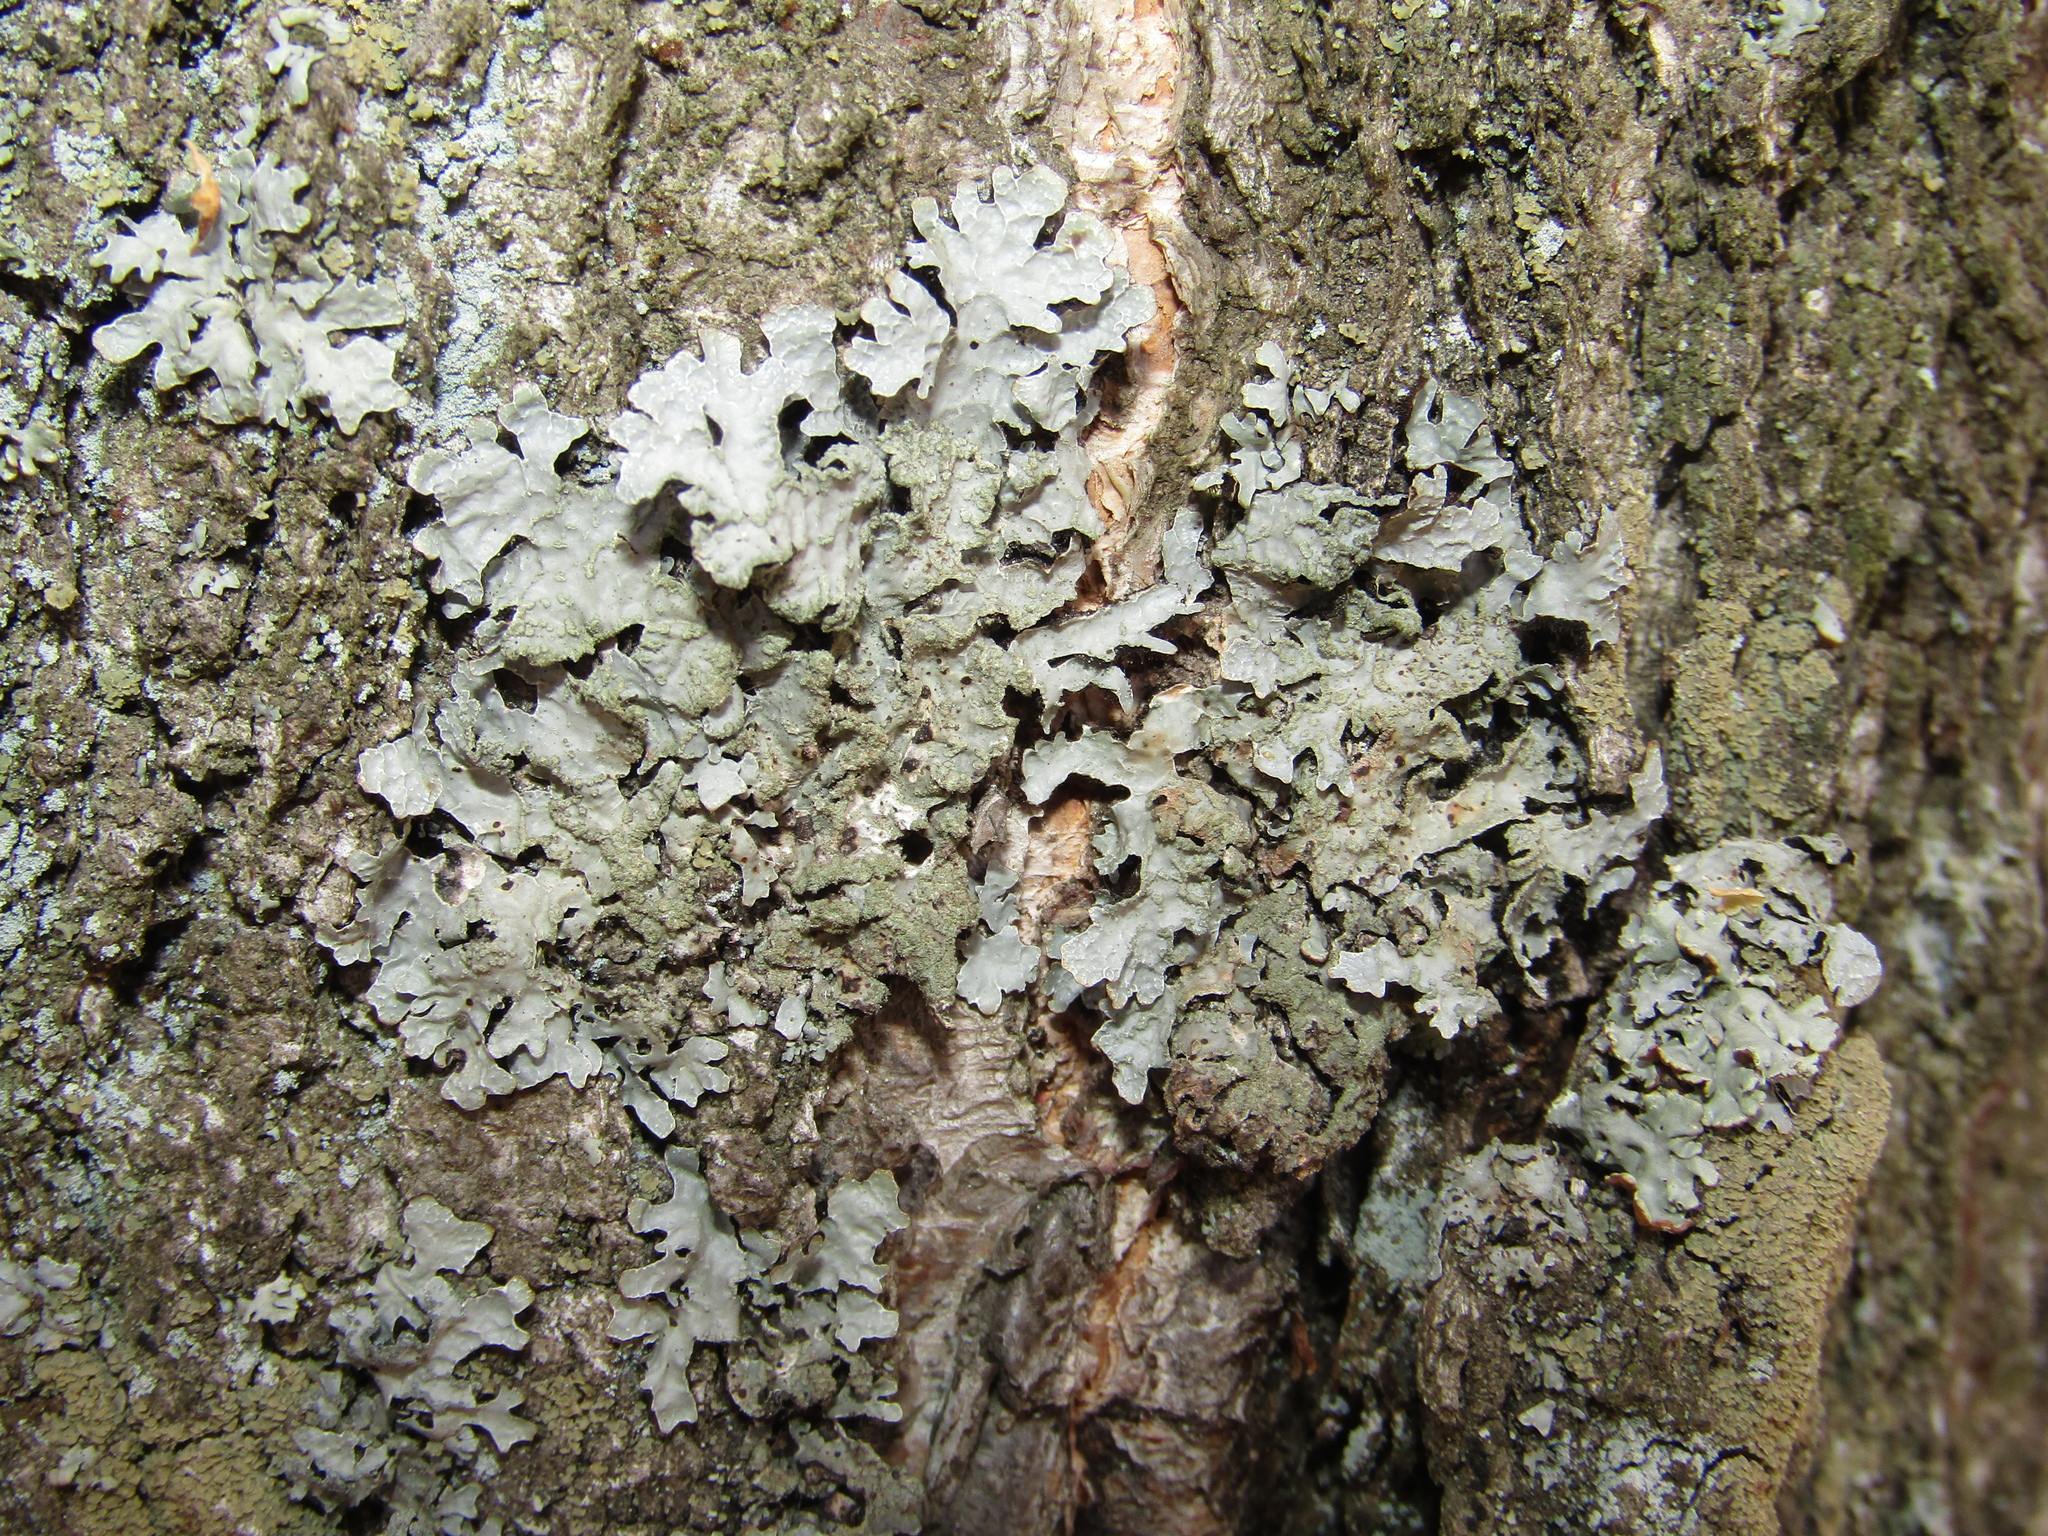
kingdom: Fungi
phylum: Ascomycota
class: Lecanoromycetes
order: Lecanorales
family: Parmeliaceae
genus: Parmelia
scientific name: Parmelia sulcata
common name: Netted shield lichen
